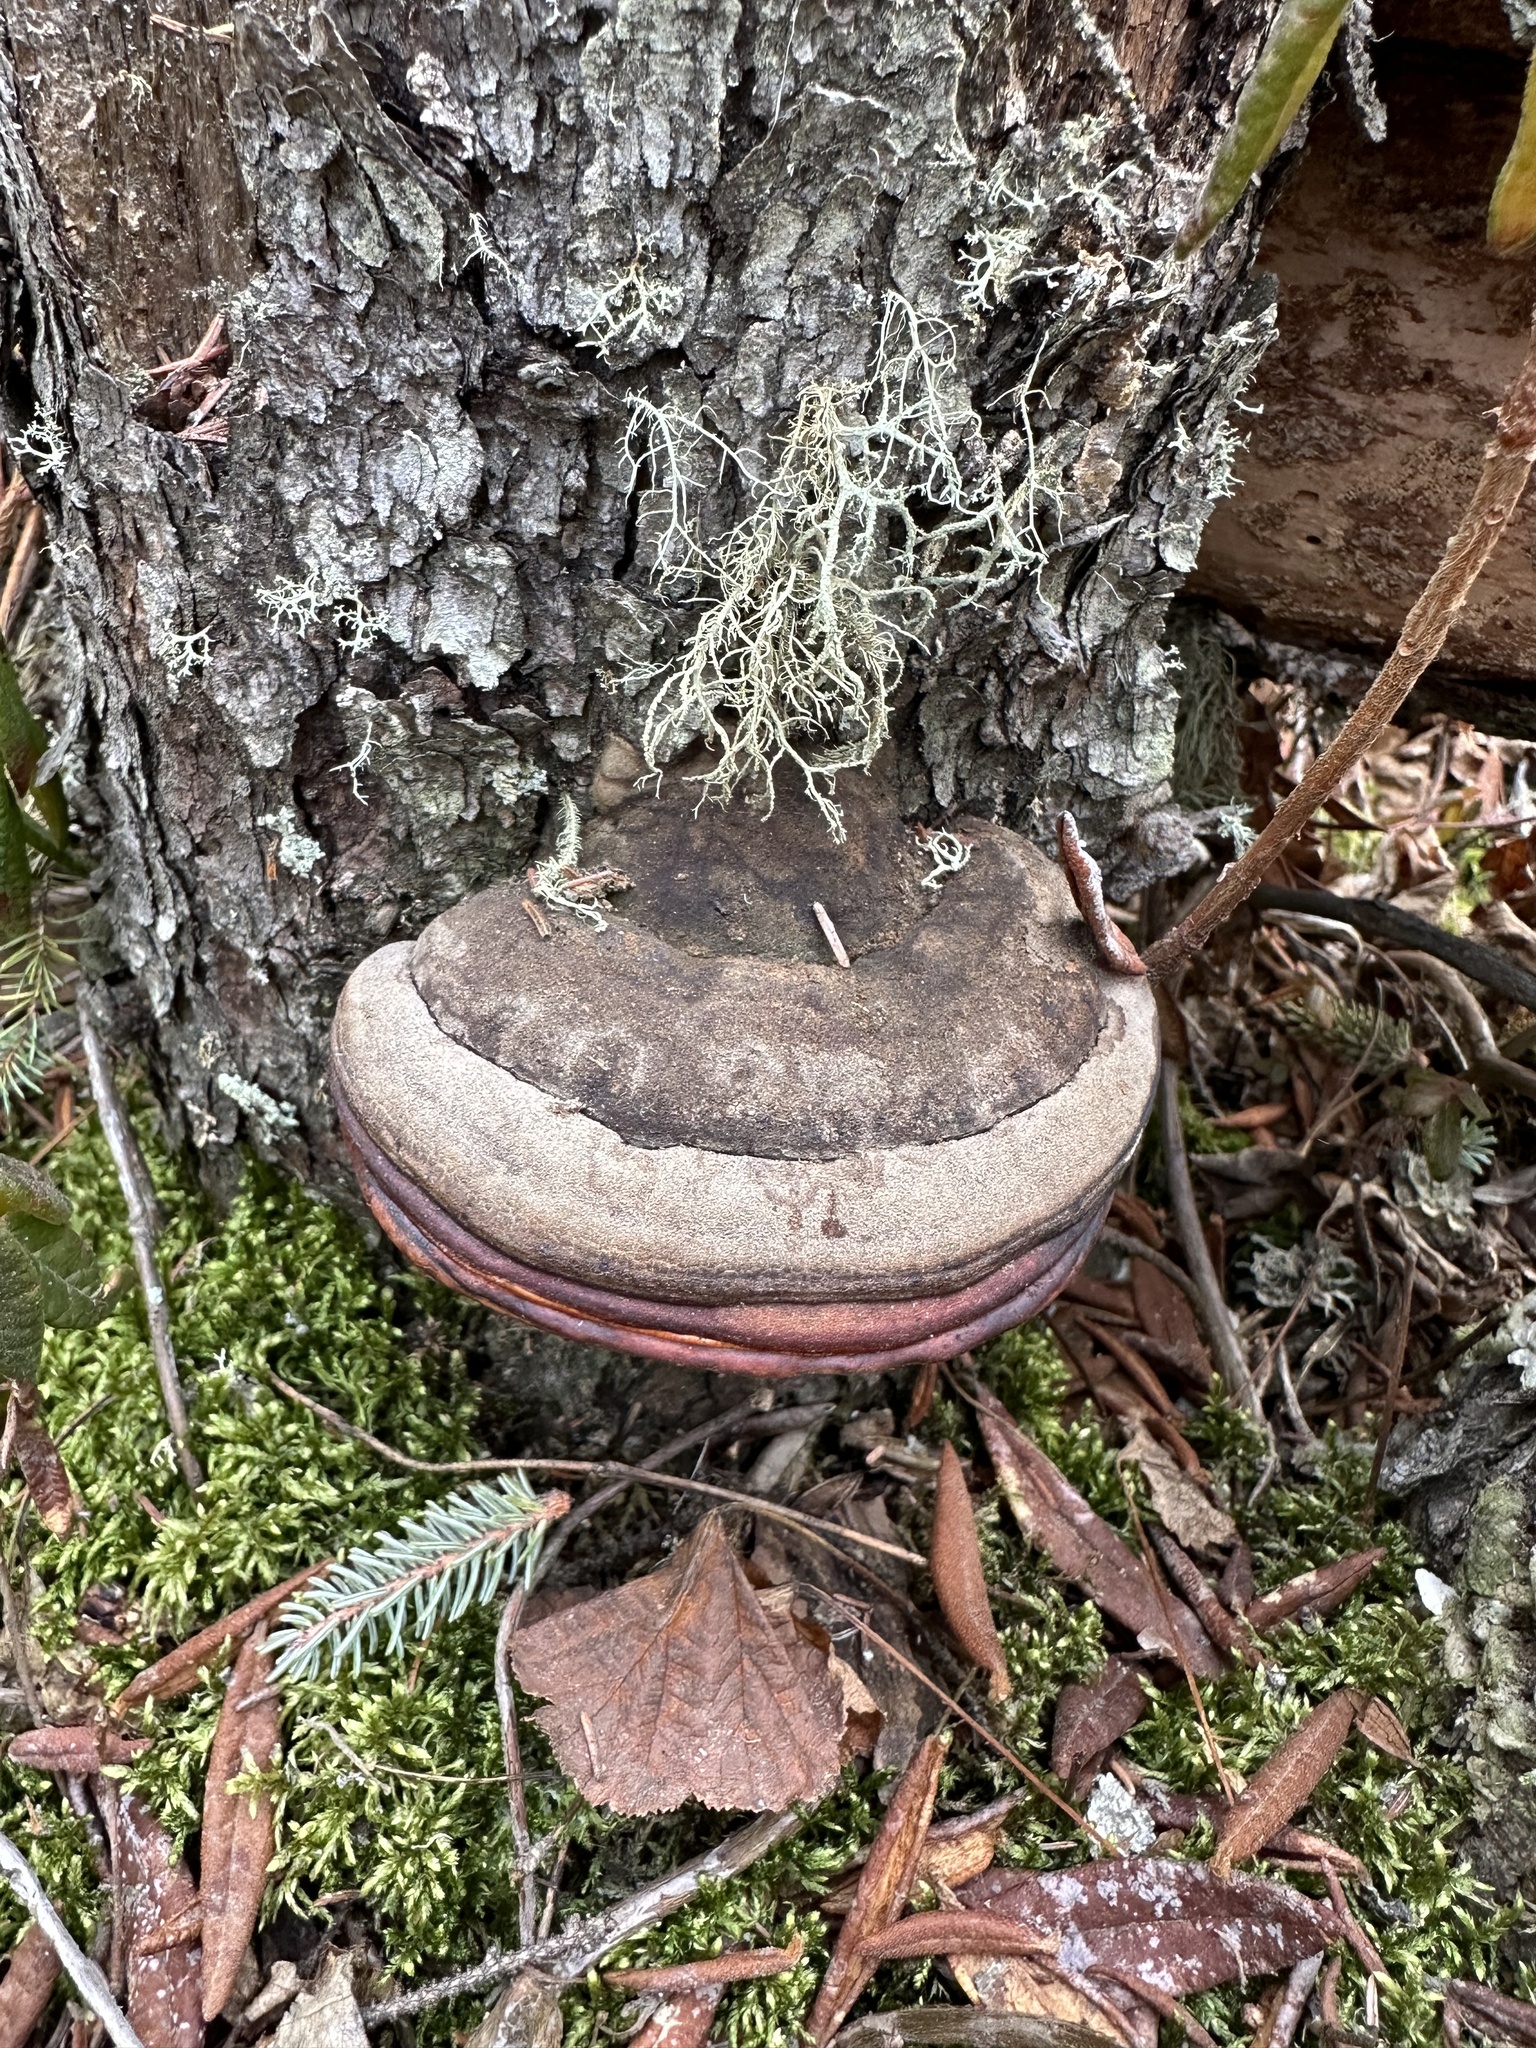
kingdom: Fungi
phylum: Basidiomycota
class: Agaricomycetes
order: Polyporales
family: Fomitopsidaceae
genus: Fomitopsis
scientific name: Fomitopsis mounceae
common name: Northern red belt
